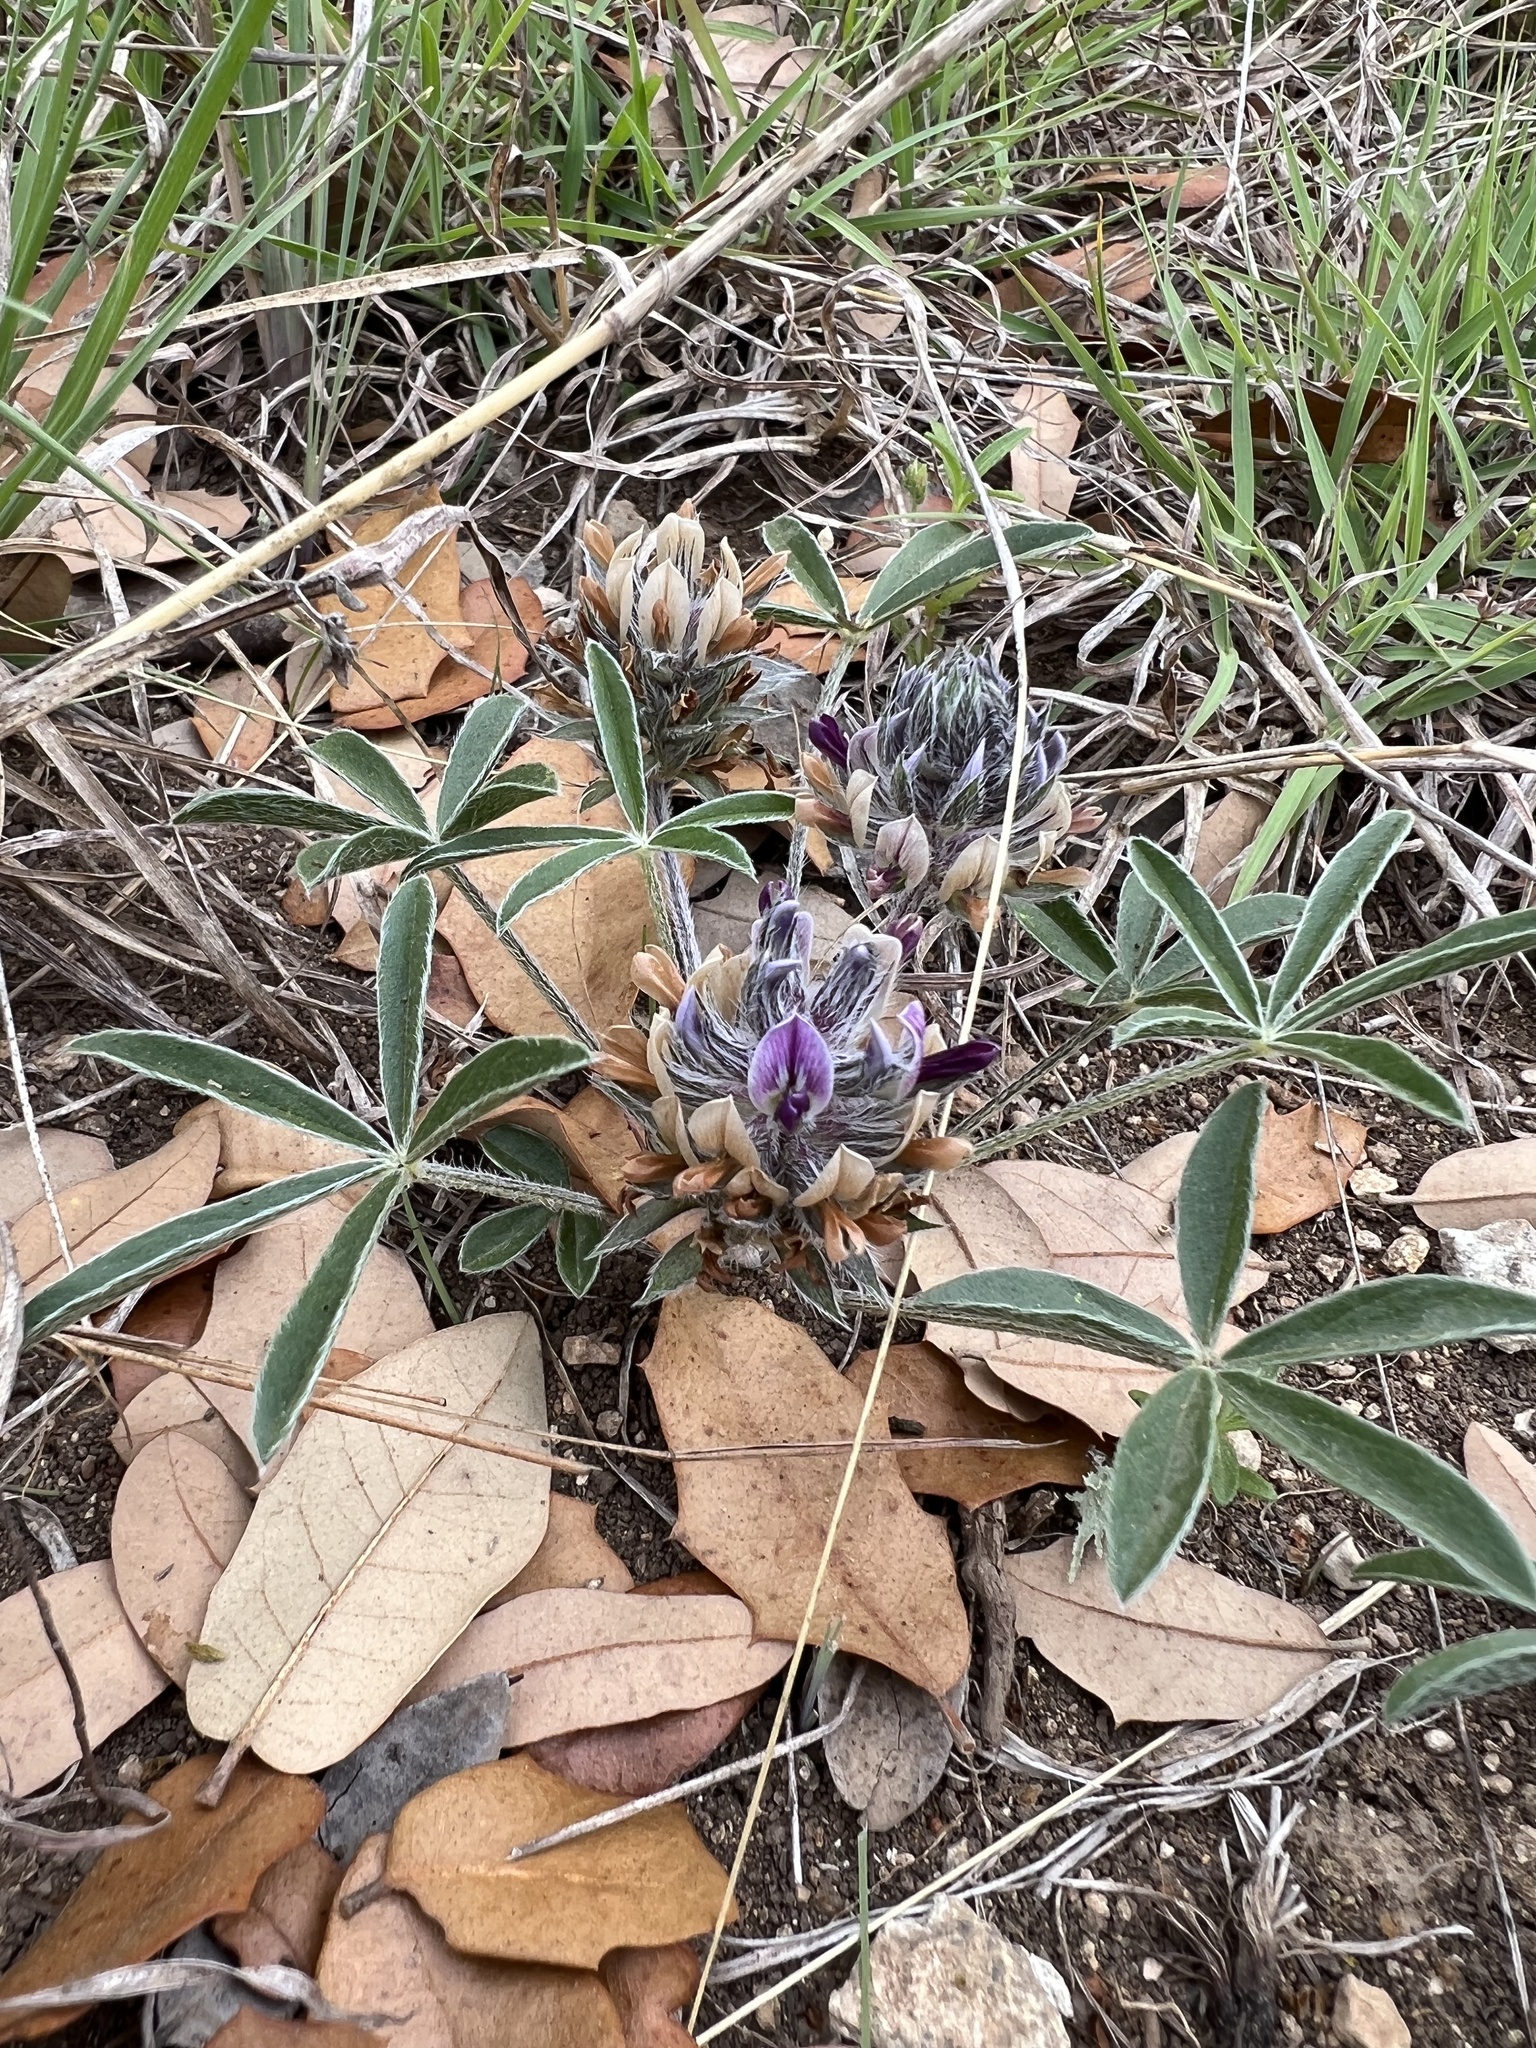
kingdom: Plantae
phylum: Tracheophyta
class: Magnoliopsida
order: Fabales
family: Fabaceae
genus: Pediomelum
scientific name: Pediomelum hypogaeum
